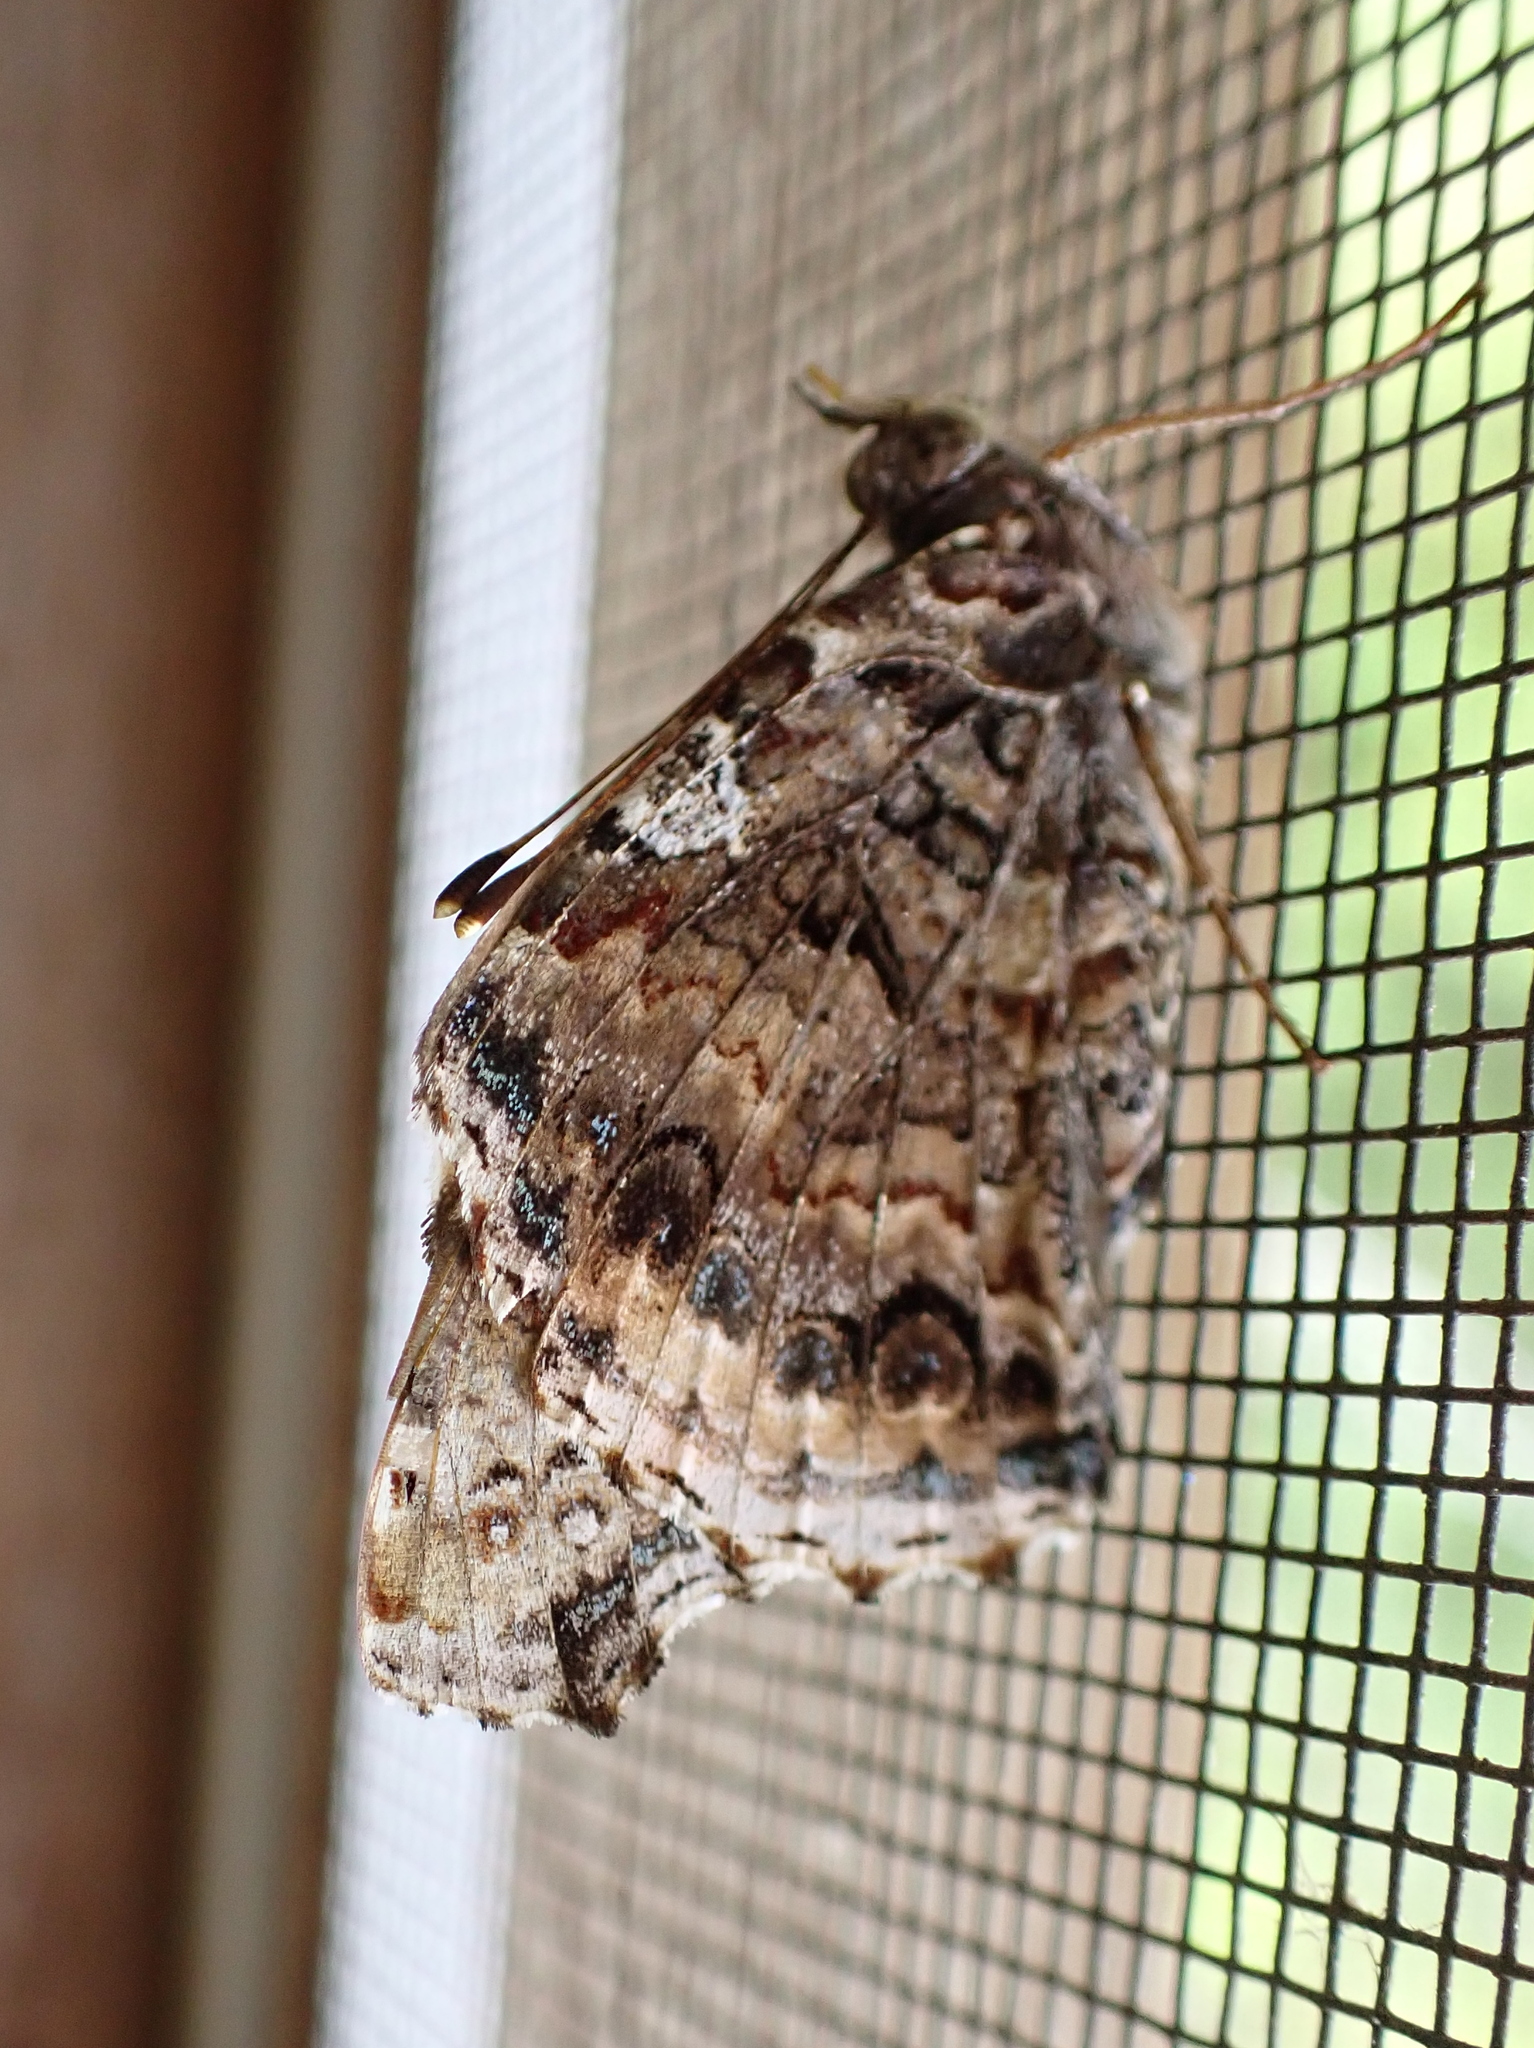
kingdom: Animalia
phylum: Arthropoda
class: Insecta
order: Lepidoptera
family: Nymphalidae
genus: Vanessa
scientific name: Vanessa atalanta
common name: Red admiral
